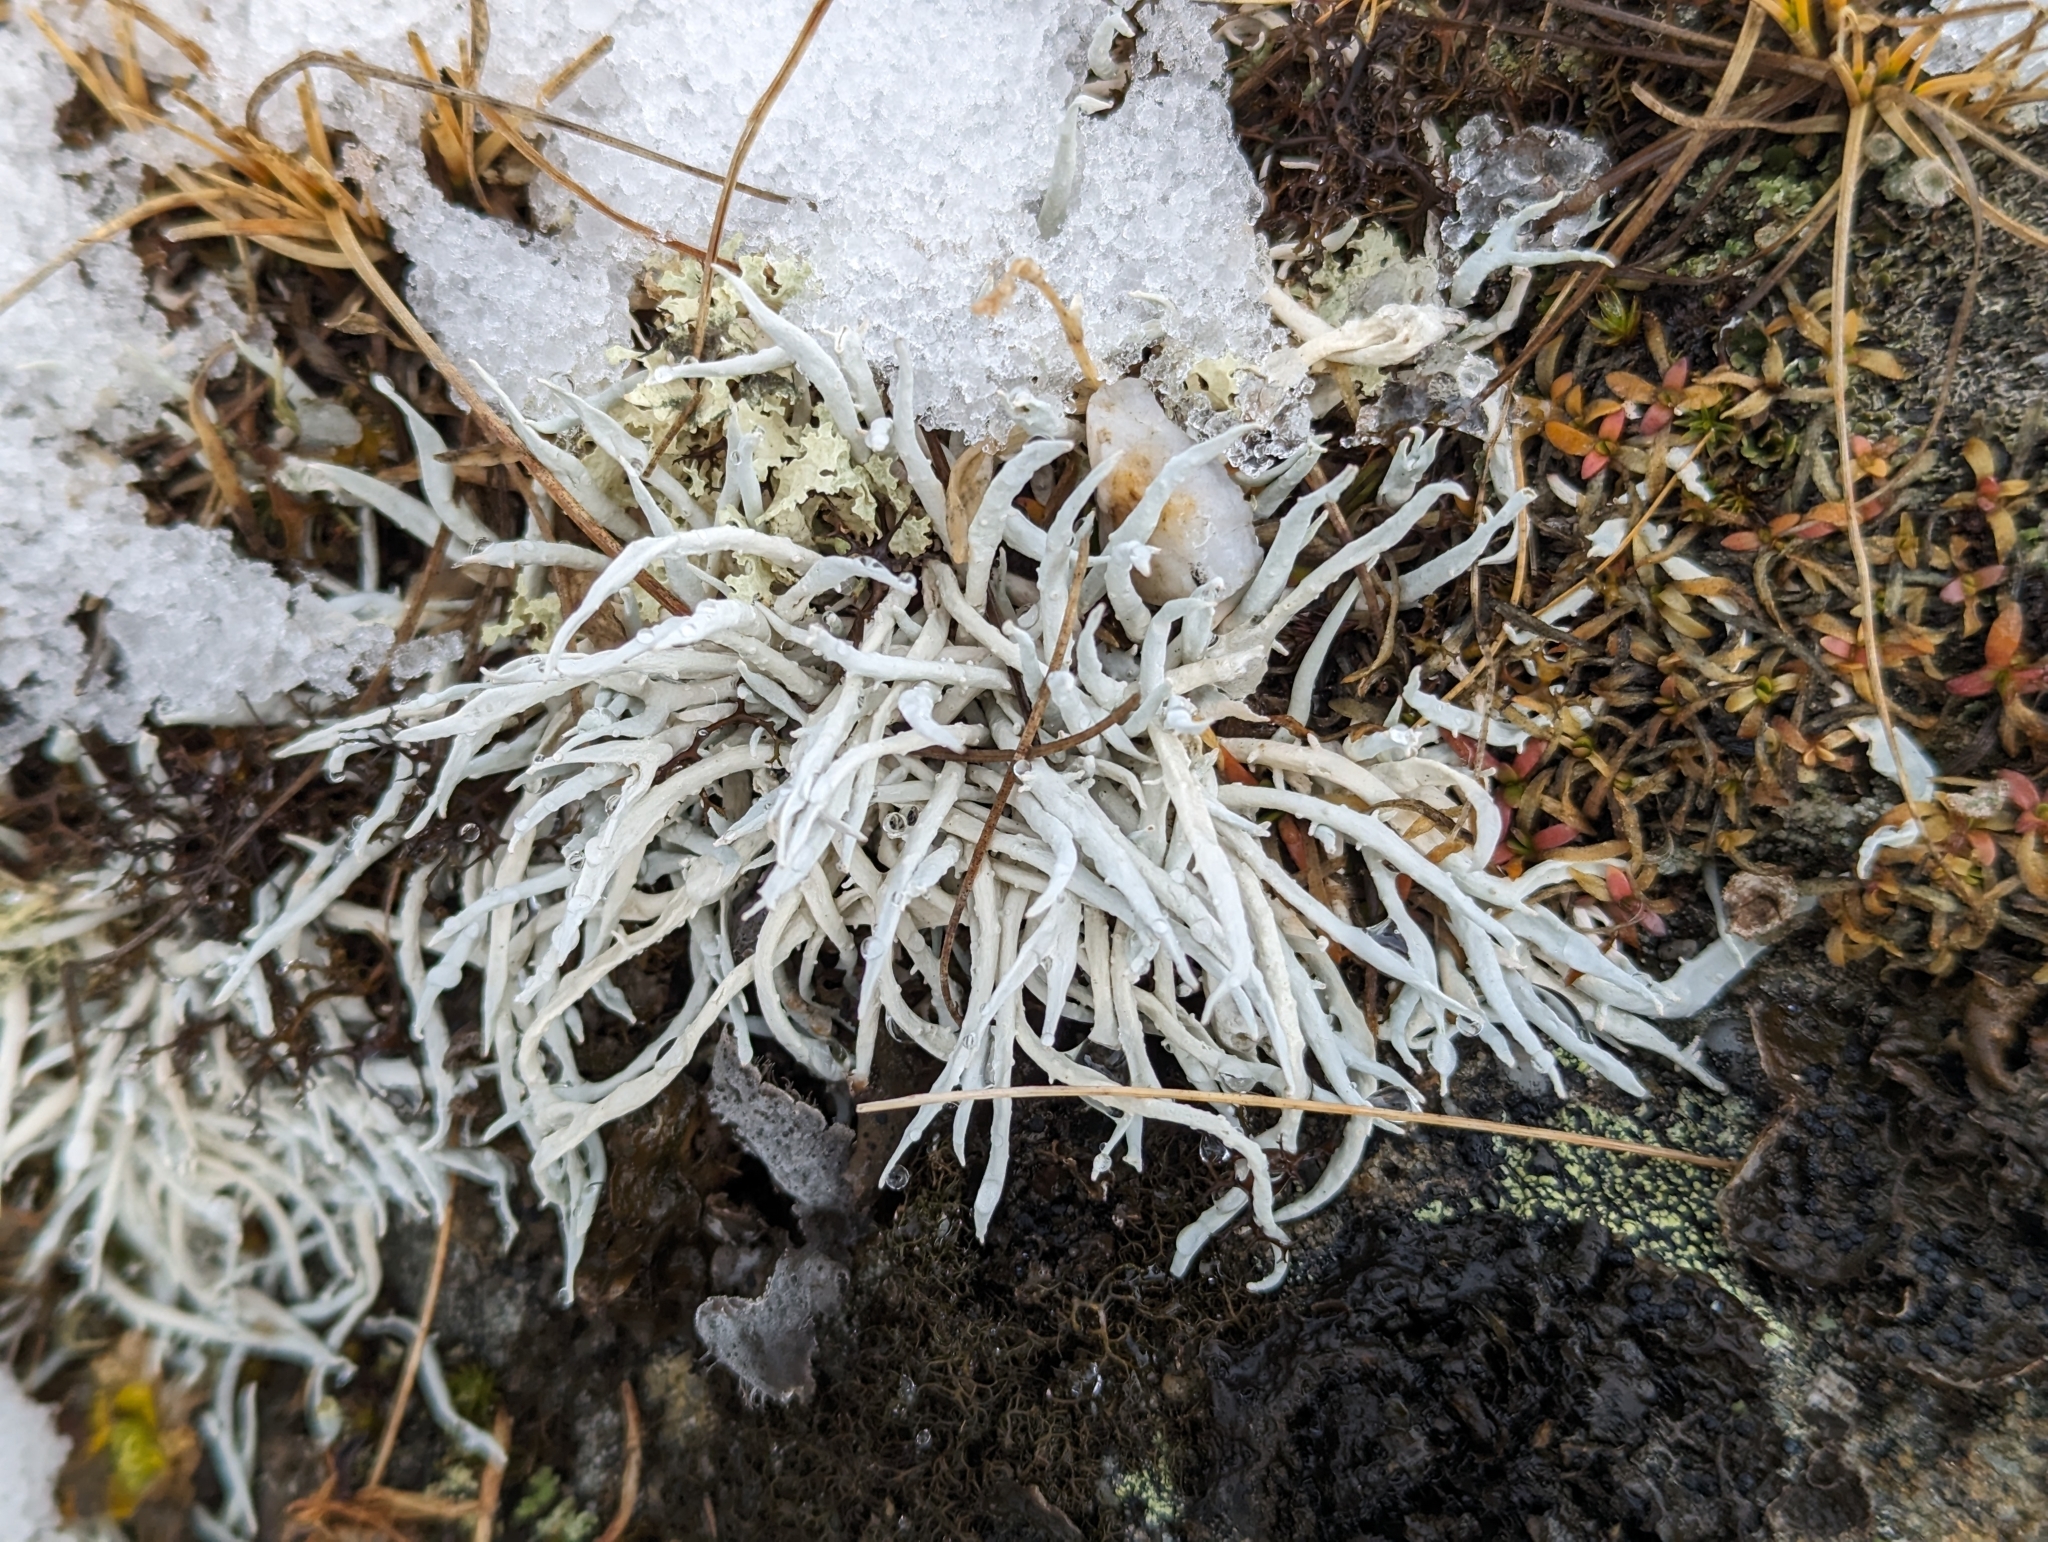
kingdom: Fungi
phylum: Ascomycota
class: Lecanoromycetes
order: Pertusariales
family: Icmadophilaceae
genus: Thamnolia
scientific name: Thamnolia vermicularis
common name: Whiteworm lichen
